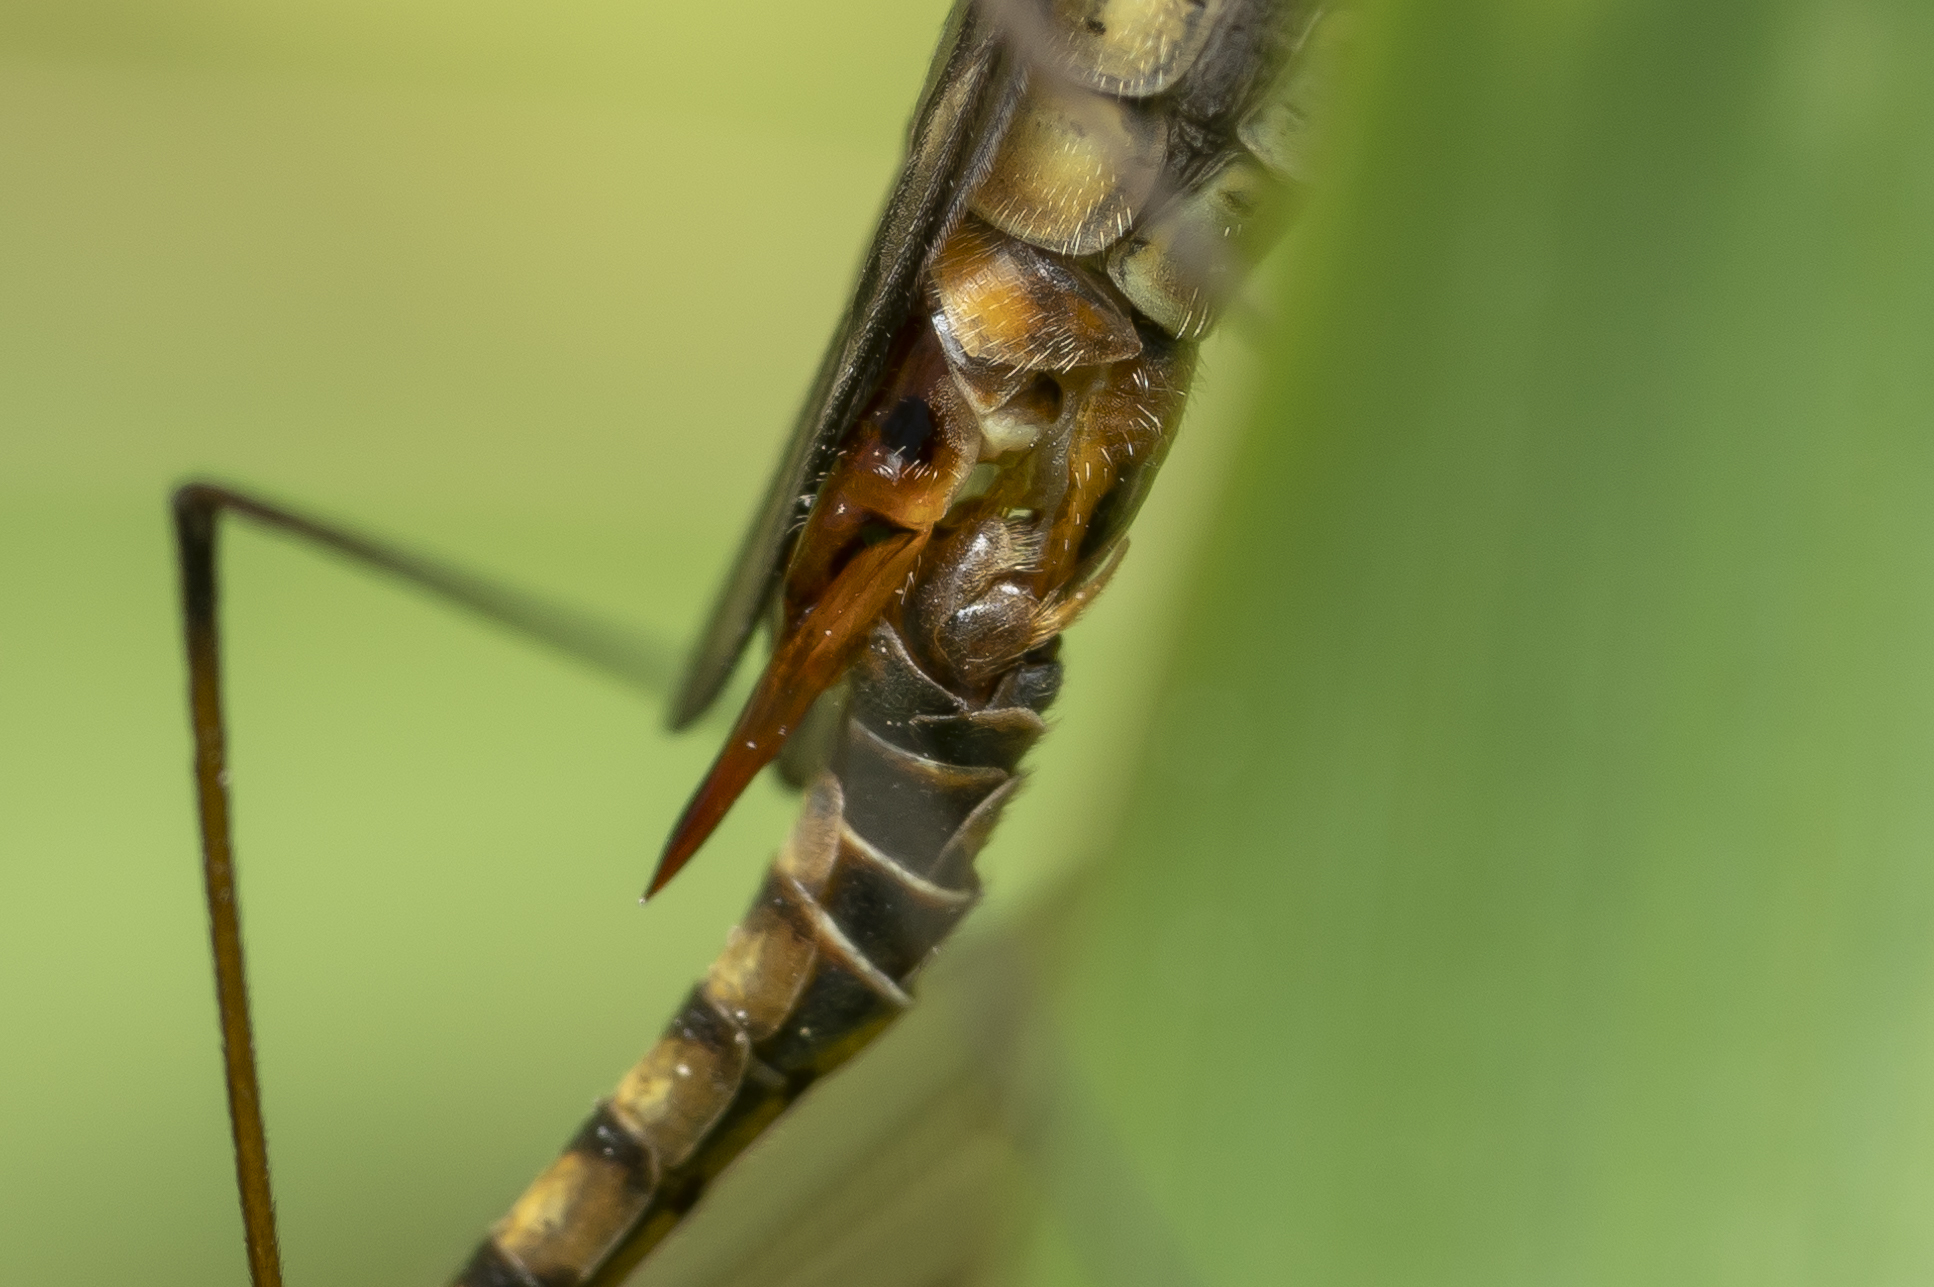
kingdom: Animalia
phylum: Arthropoda
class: Insecta
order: Diptera
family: Tipulidae
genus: Nephrotoma
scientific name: Nephrotoma theowaldi
